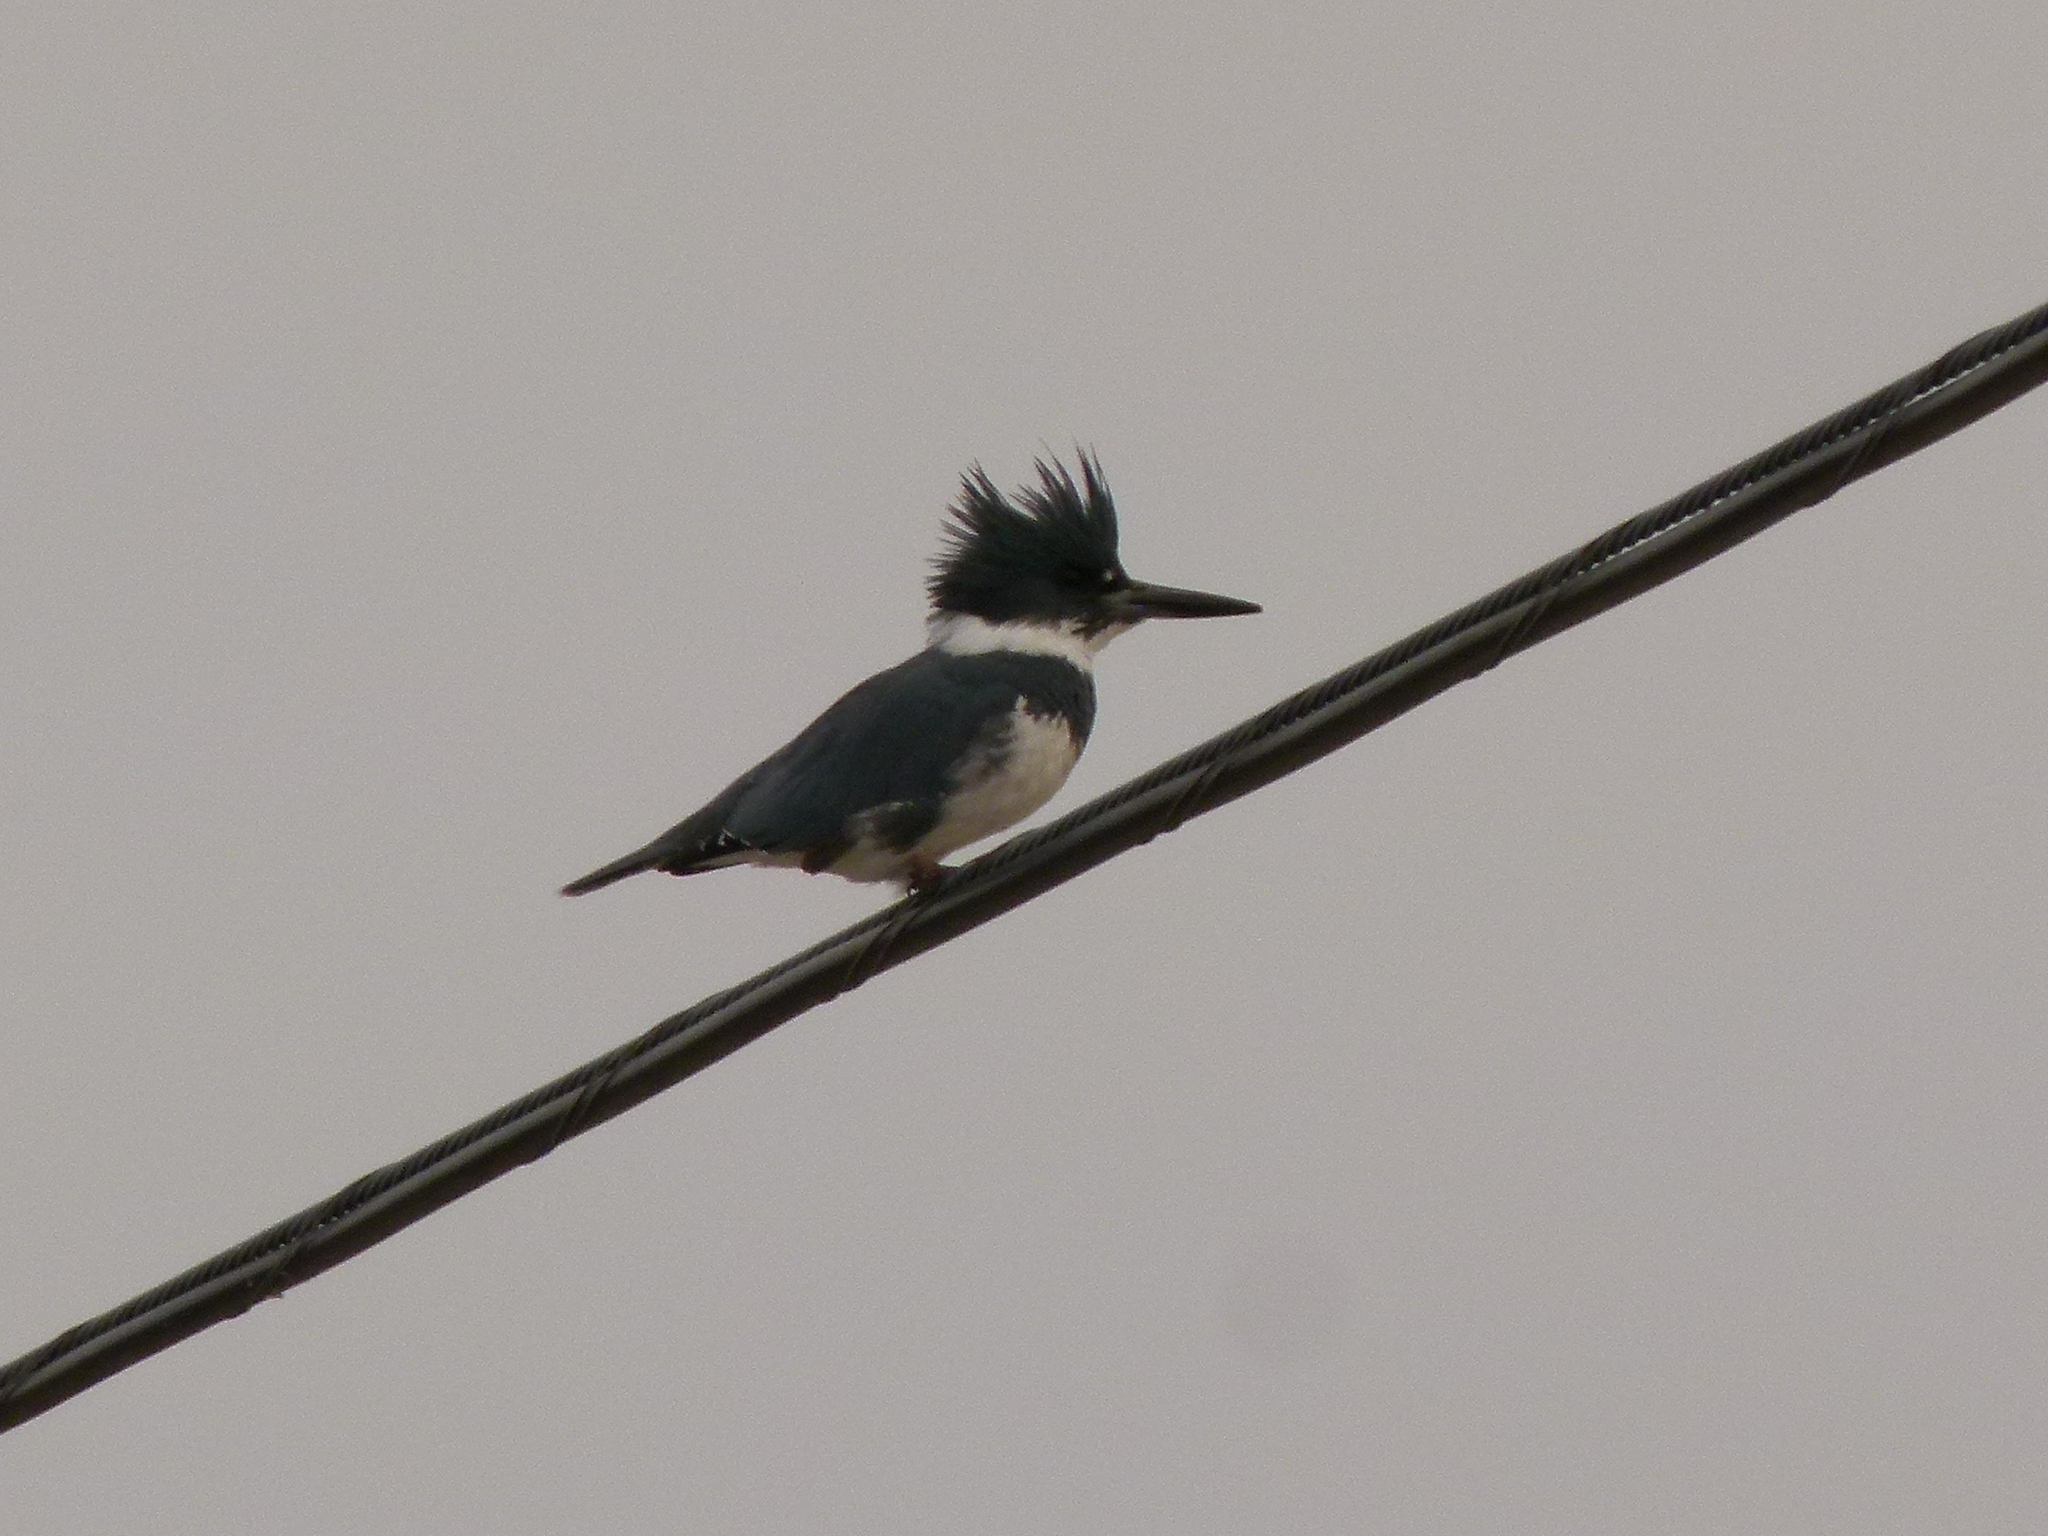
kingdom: Animalia
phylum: Chordata
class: Aves
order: Coraciiformes
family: Alcedinidae
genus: Megaceryle
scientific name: Megaceryle alcyon
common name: Belted kingfisher
